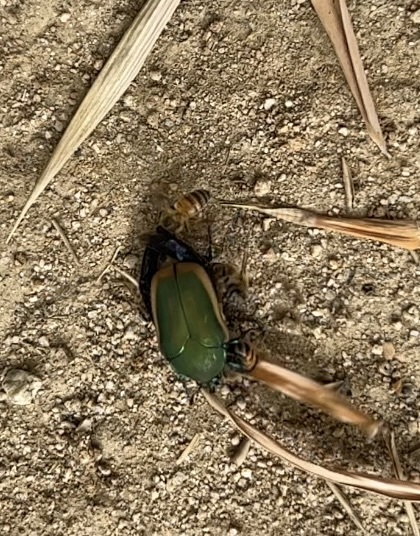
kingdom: Animalia
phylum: Arthropoda
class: Insecta
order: Coleoptera
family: Scarabaeidae
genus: Cotinis
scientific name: Cotinis mutabilis
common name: Figeater beetle
